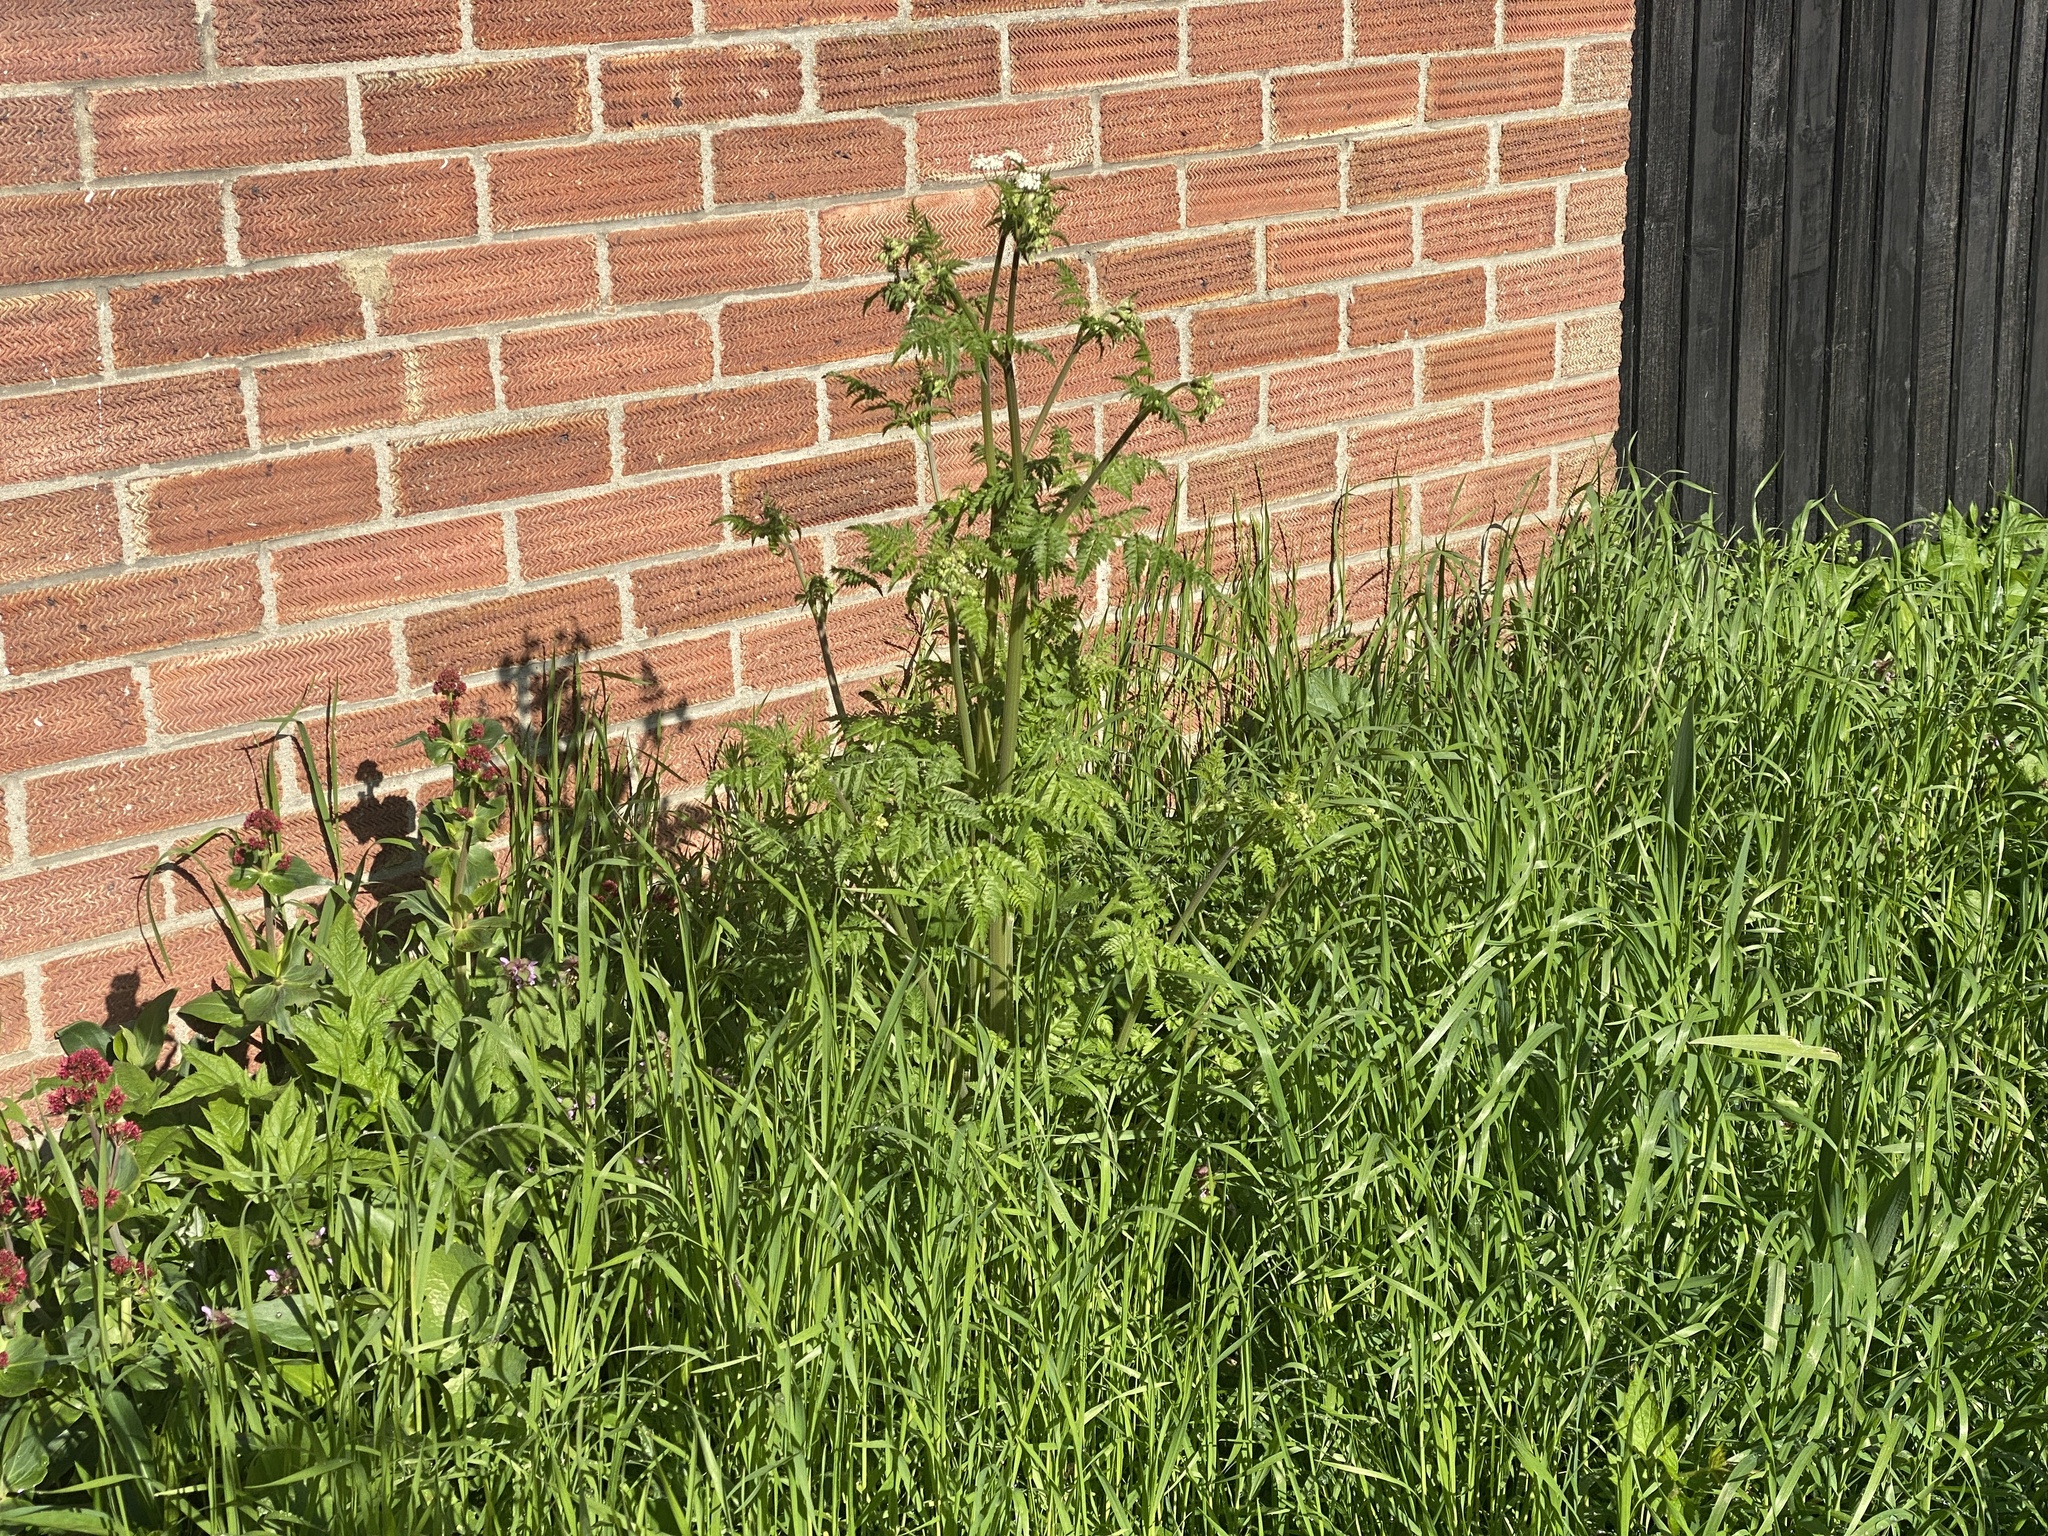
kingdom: Plantae
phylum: Tracheophyta
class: Magnoliopsida
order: Apiales
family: Apiaceae
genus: Anthriscus
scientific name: Anthriscus sylvestris
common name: Cow parsley
